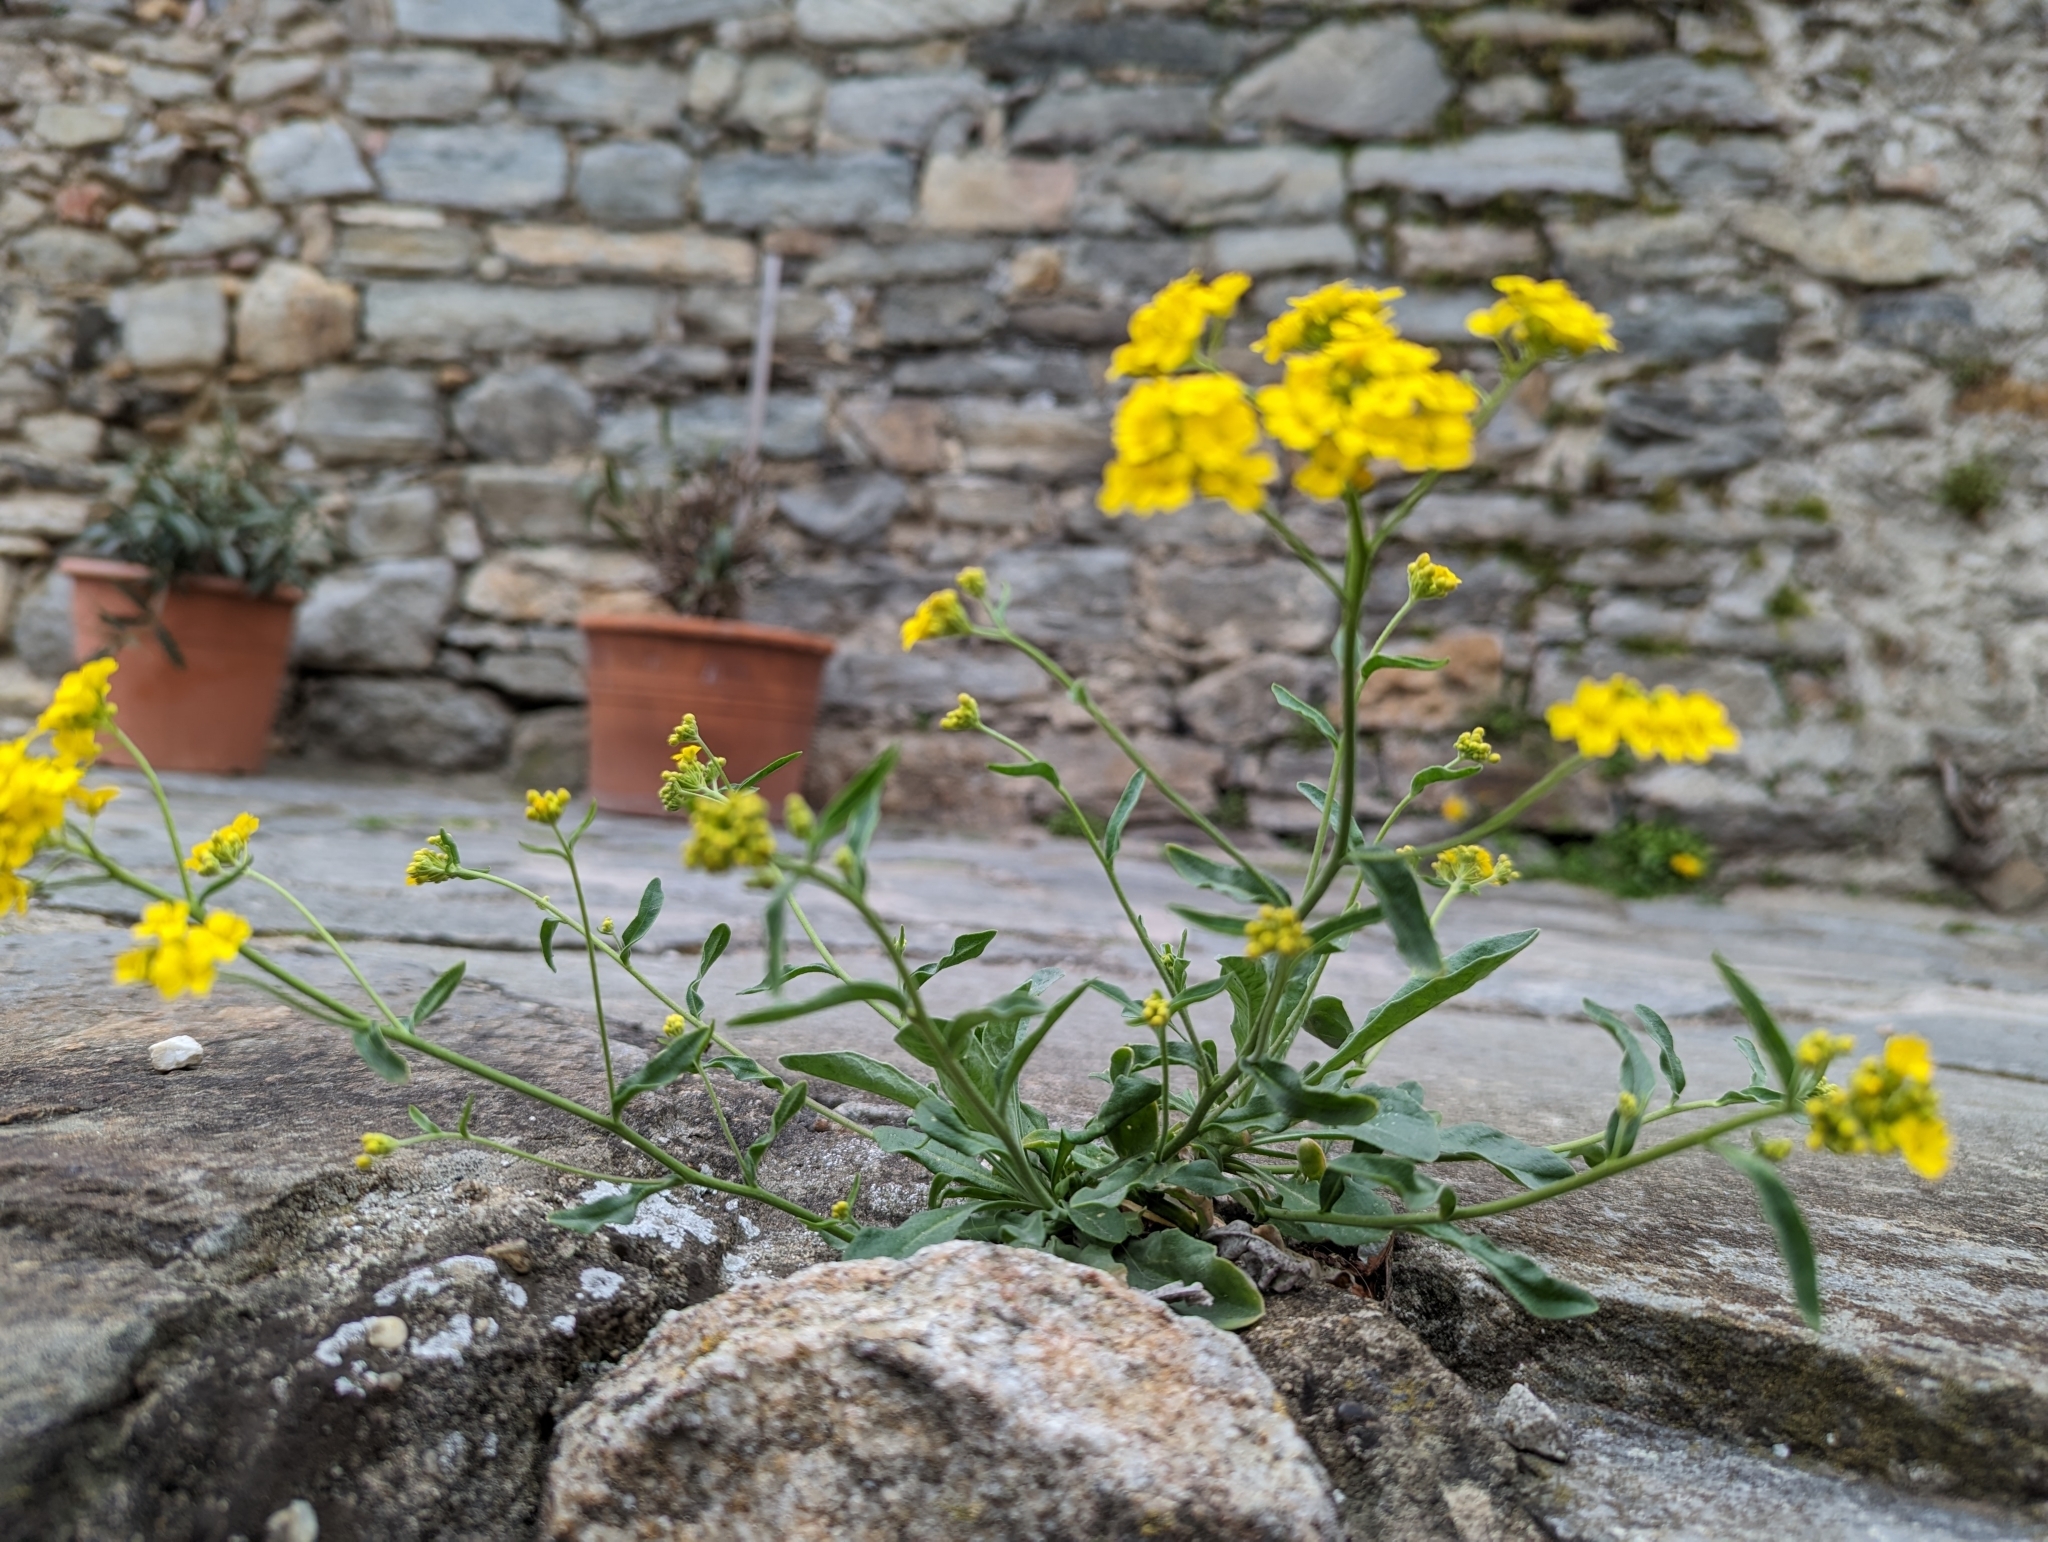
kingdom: Plantae
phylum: Tracheophyta
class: Magnoliopsida
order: Brassicales
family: Brassicaceae
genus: Aurinia
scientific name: Aurinia saxatilis
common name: Golden-tuft alyssum
